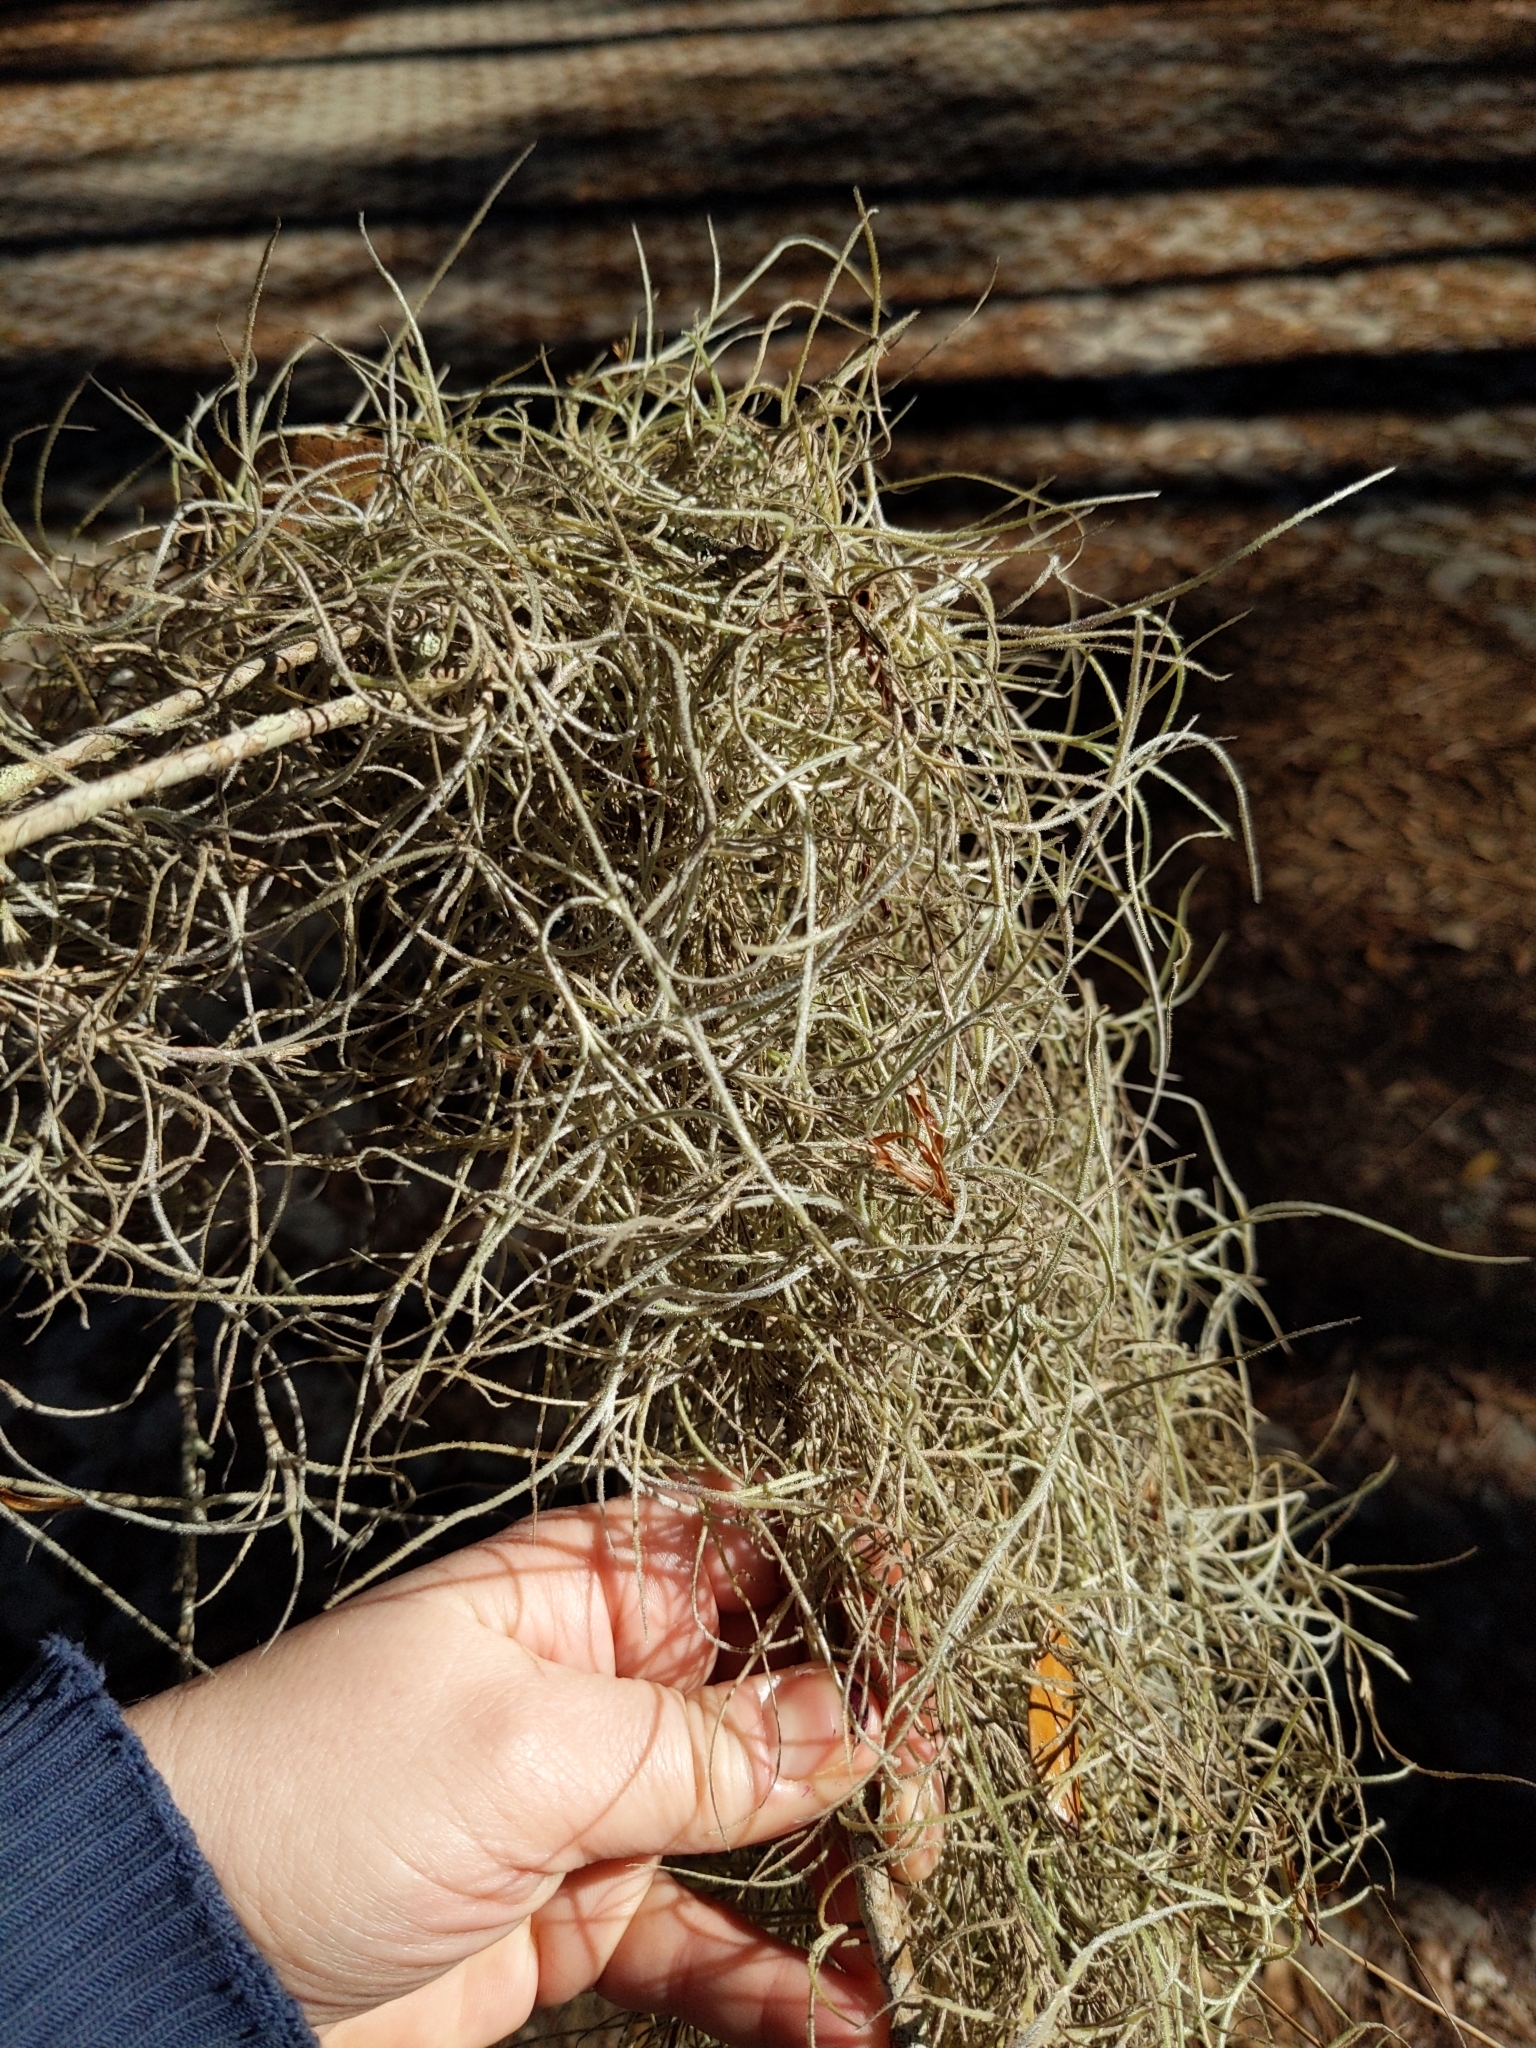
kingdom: Plantae
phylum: Tracheophyta
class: Liliopsida
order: Poales
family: Bromeliaceae
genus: Tillandsia
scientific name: Tillandsia usneoides
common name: Spanish moss
